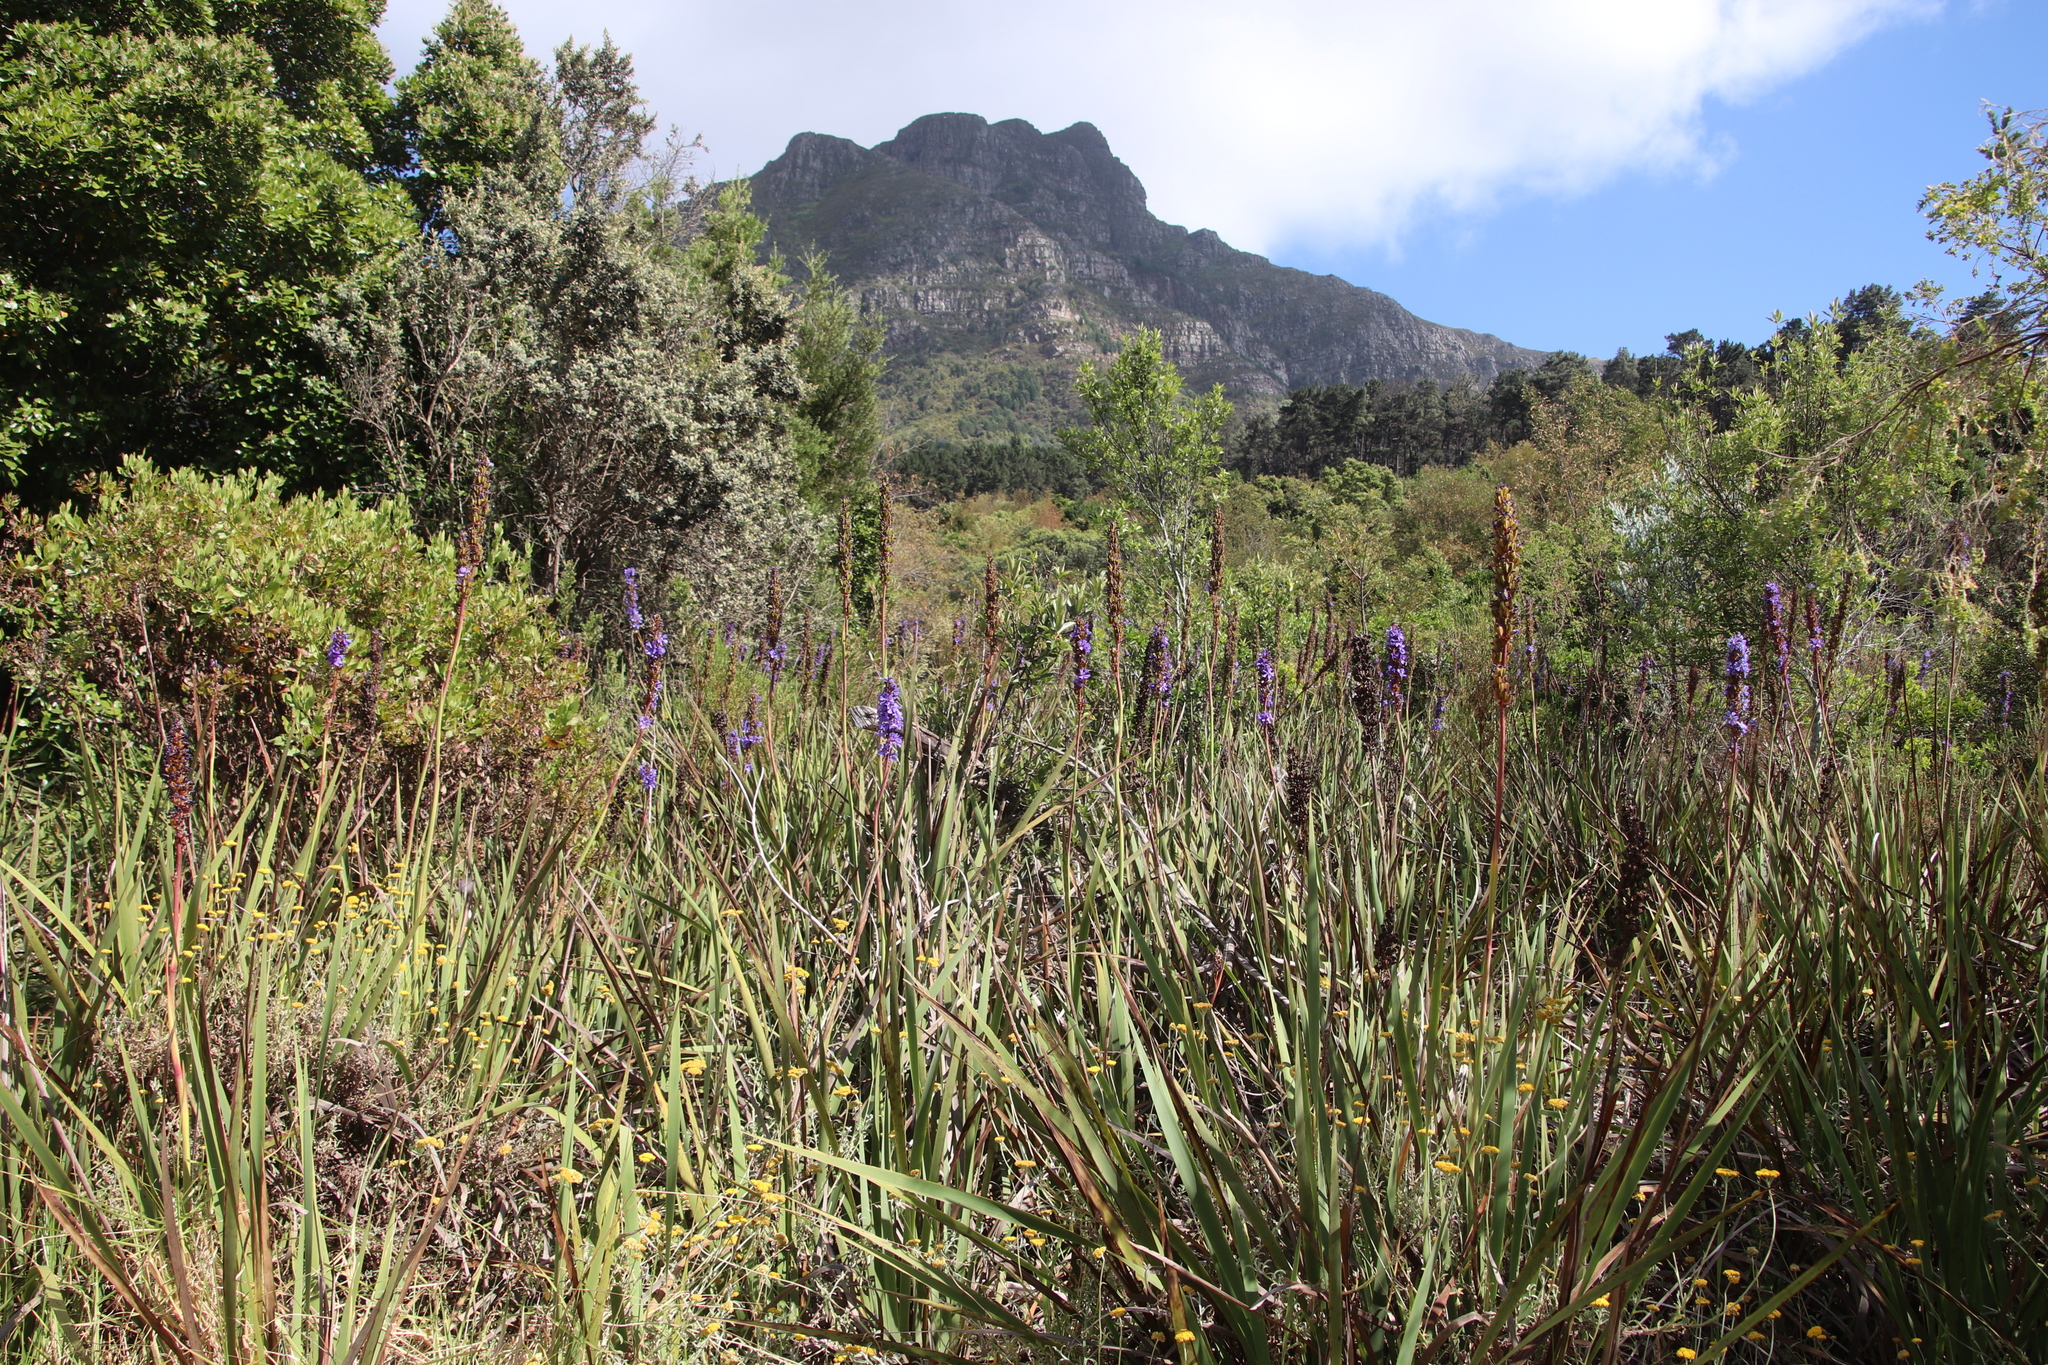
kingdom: Plantae
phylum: Tracheophyta
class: Liliopsida
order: Asparagales
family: Iridaceae
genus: Aristea
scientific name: Aristea capitata
